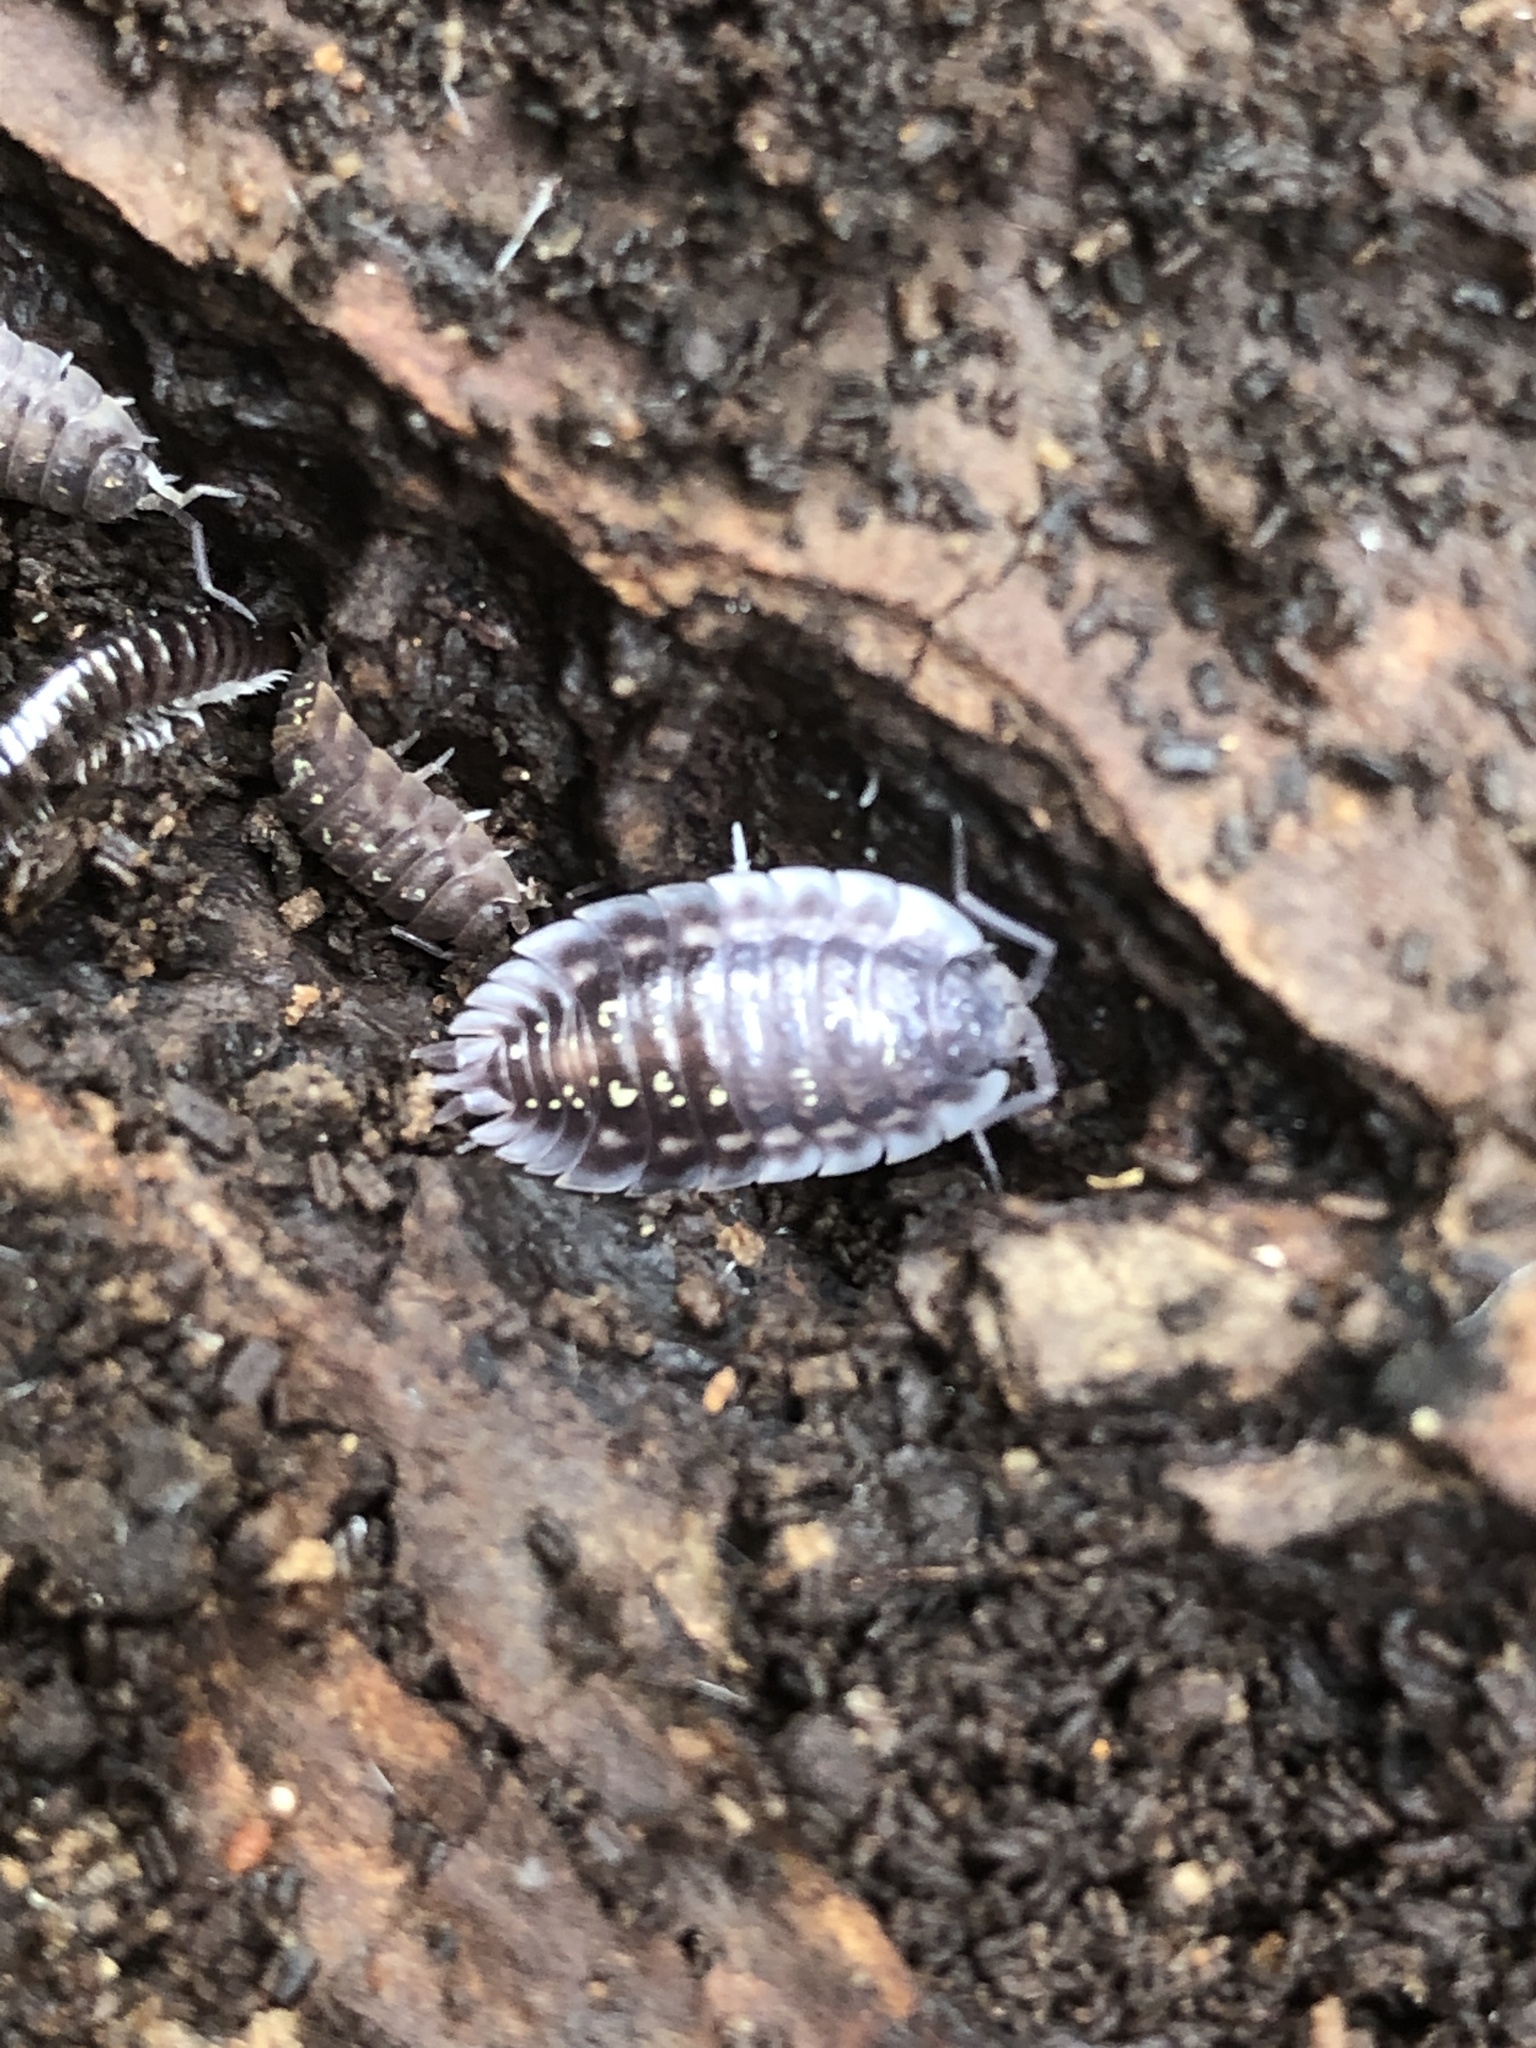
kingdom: Animalia
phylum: Arthropoda
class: Malacostraca
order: Isopoda
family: Oniscidae
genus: Oniscus
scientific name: Oniscus asellus
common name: Common shiny woodlouse
